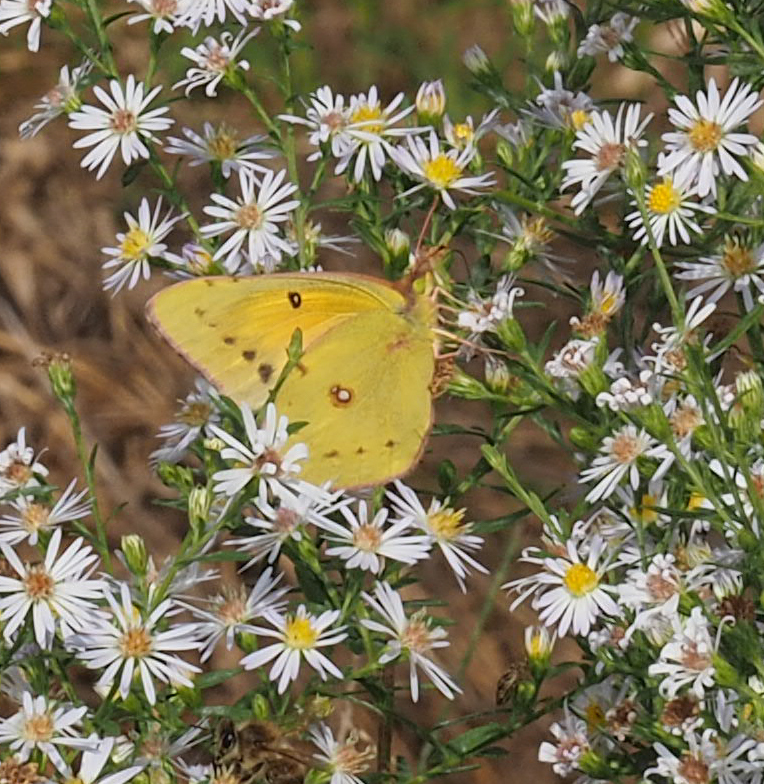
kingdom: Animalia
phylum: Arthropoda
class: Insecta
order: Lepidoptera
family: Pieridae
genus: Colias
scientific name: Colias eurytheme
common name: Alfalfa butterfly
